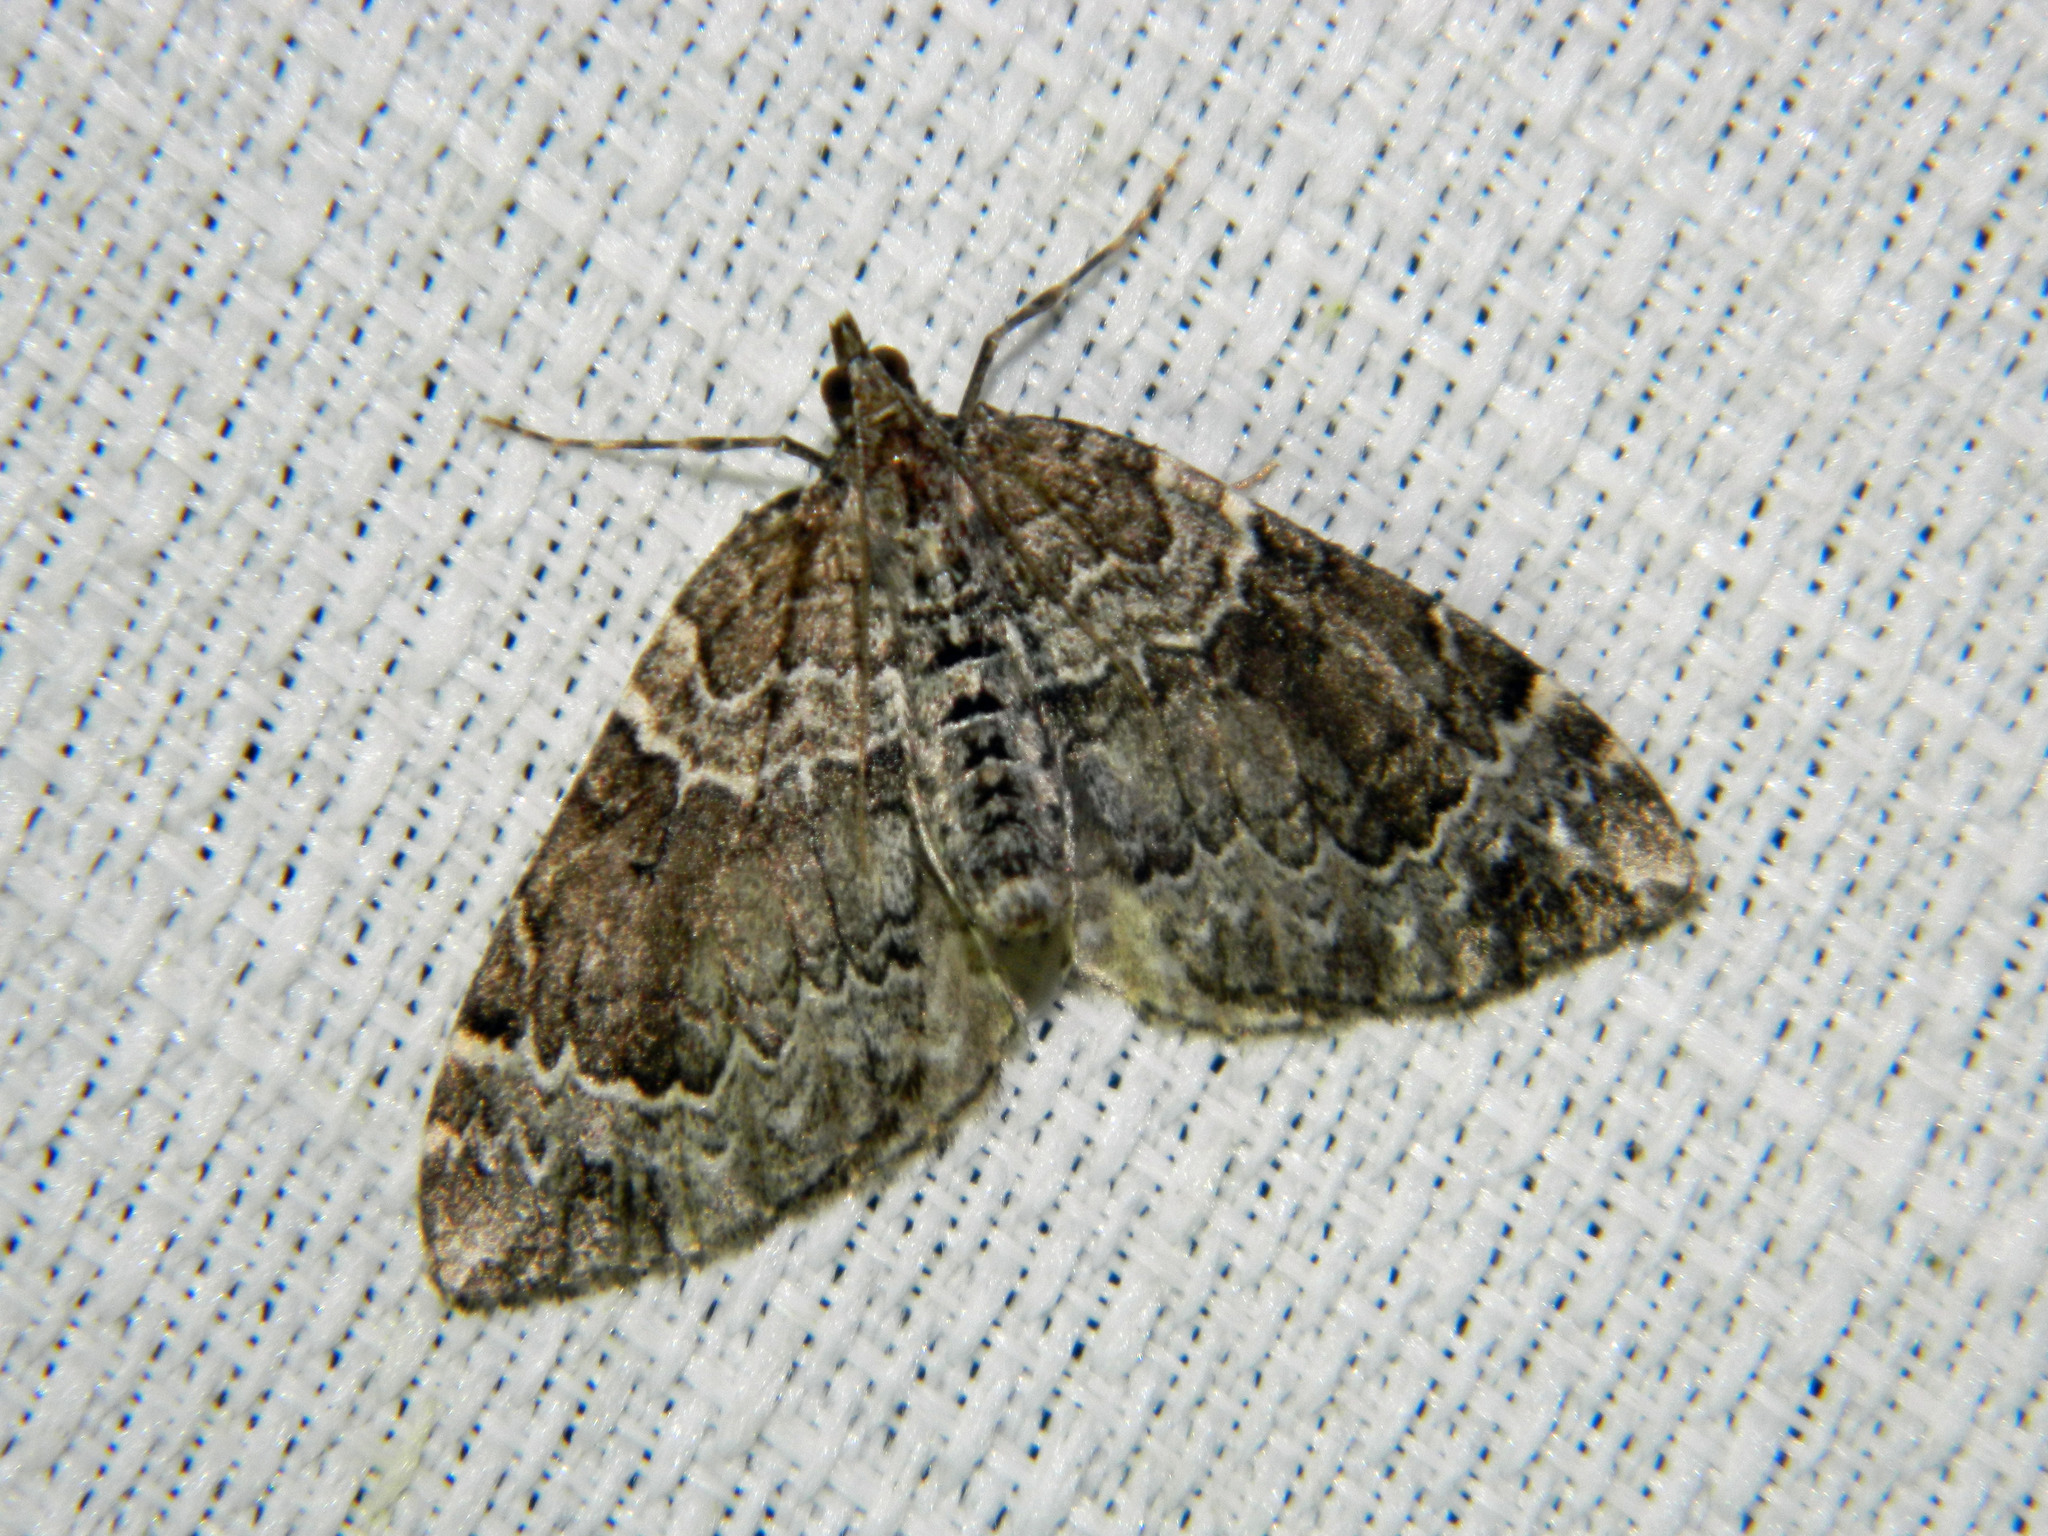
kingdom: Animalia
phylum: Arthropoda
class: Insecta
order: Lepidoptera
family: Geometridae
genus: Eulithis
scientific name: Eulithis explanata
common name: White eulithis
